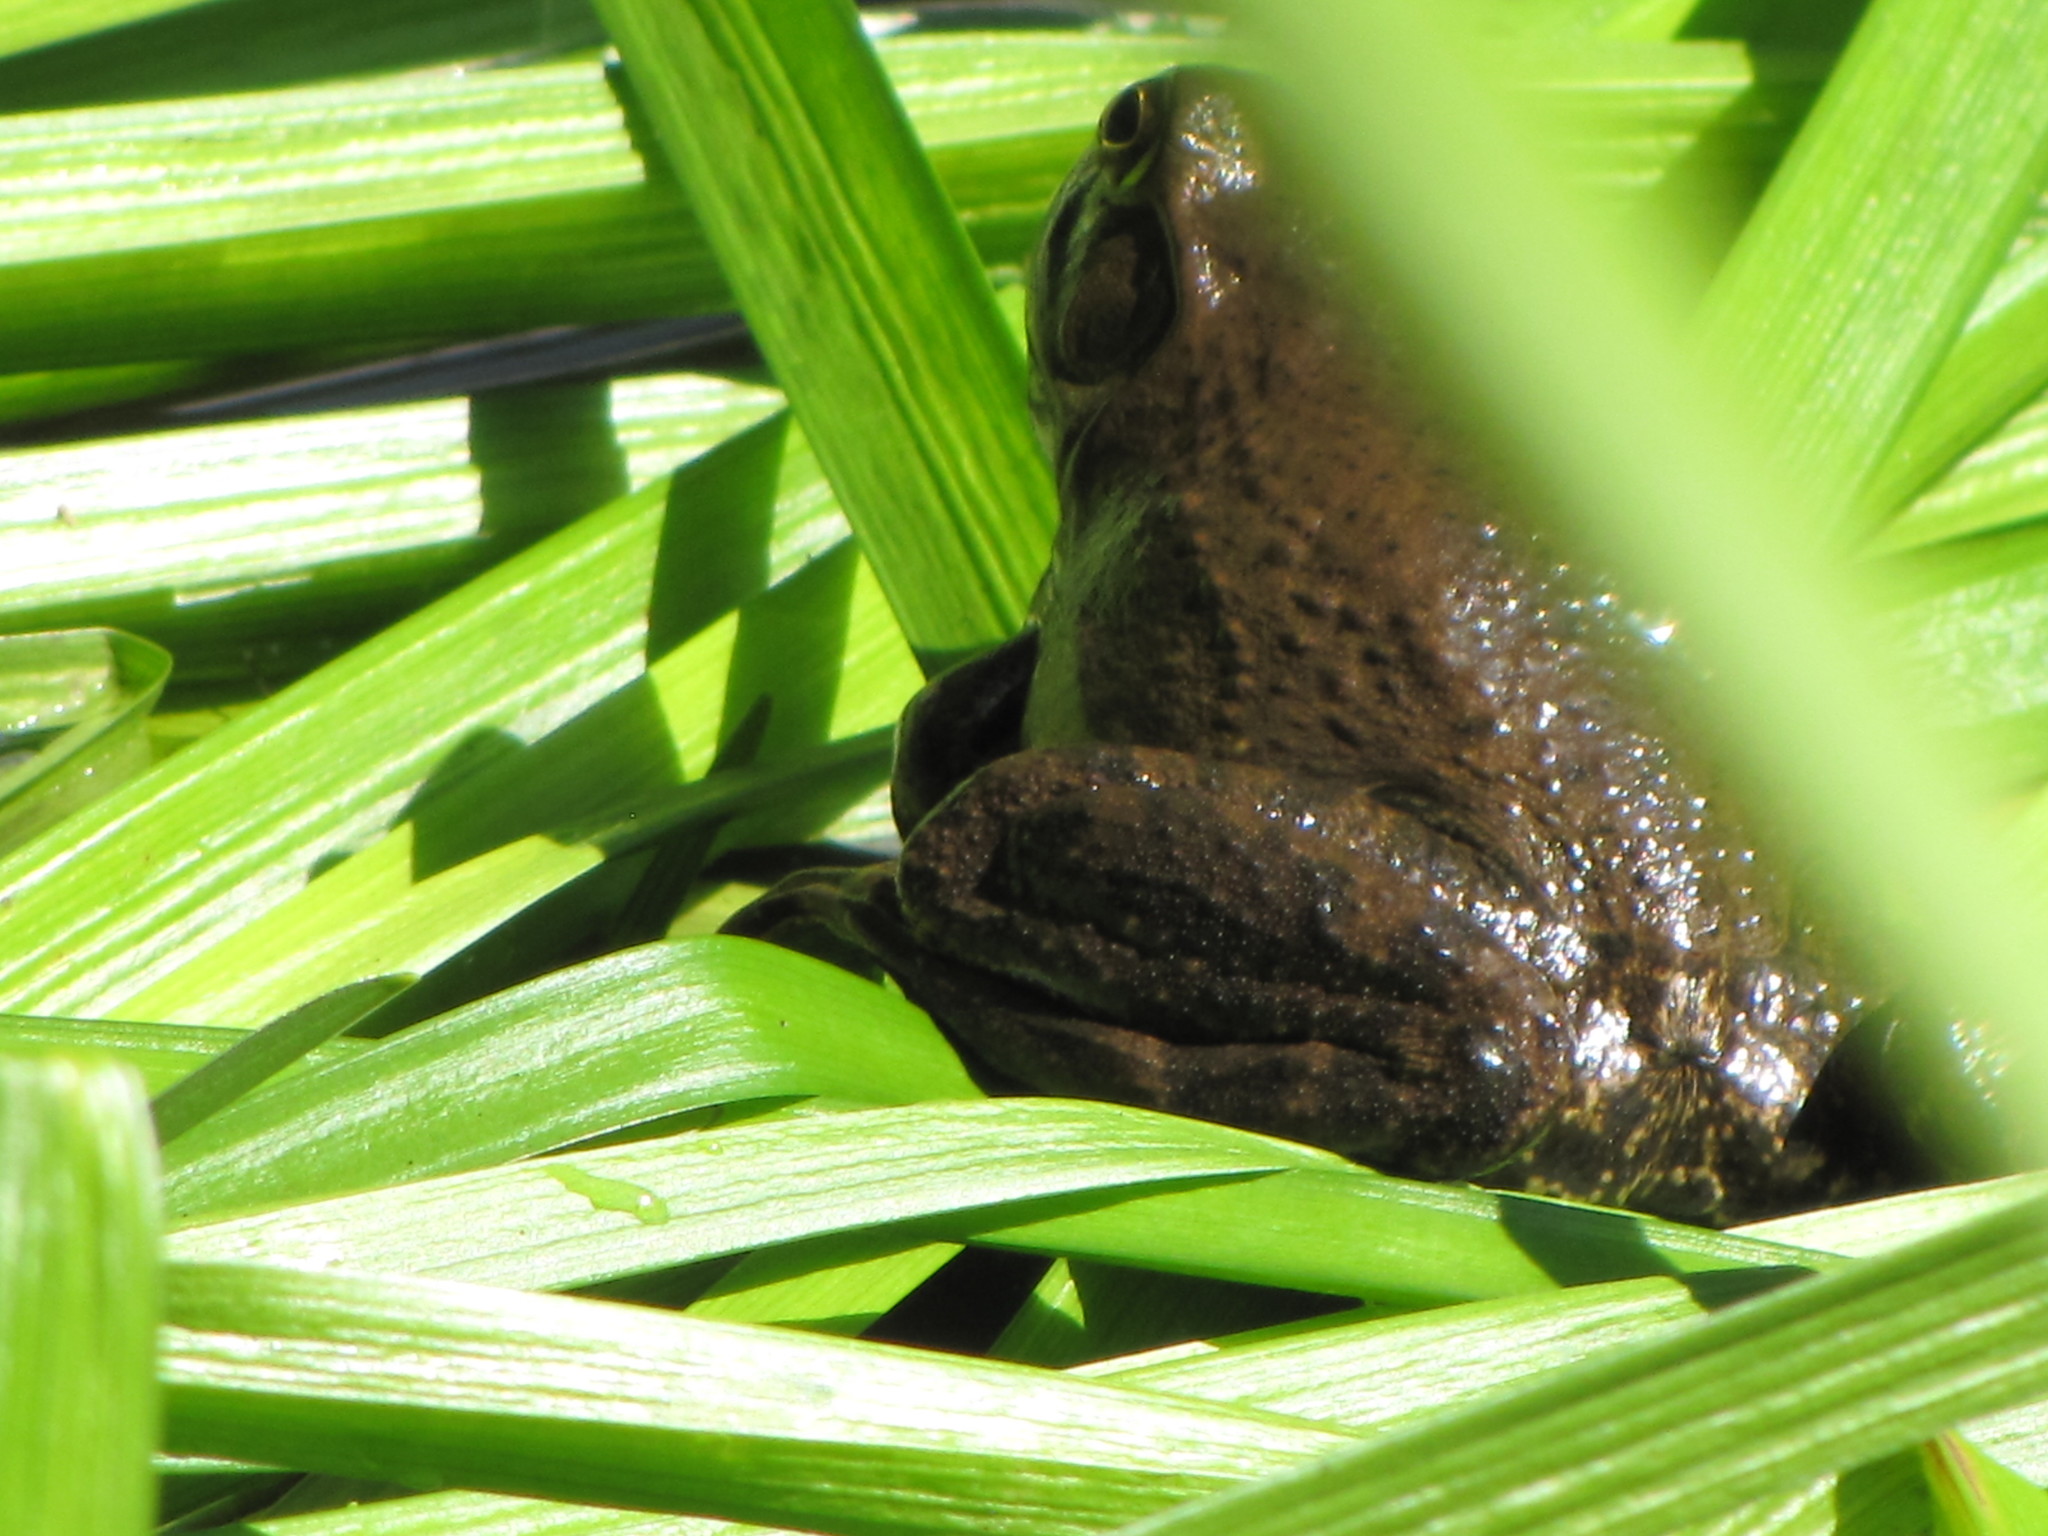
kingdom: Animalia
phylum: Chordata
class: Amphibia
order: Anura
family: Ranidae
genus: Lithobates
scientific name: Lithobates catesbeianus
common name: American bullfrog
